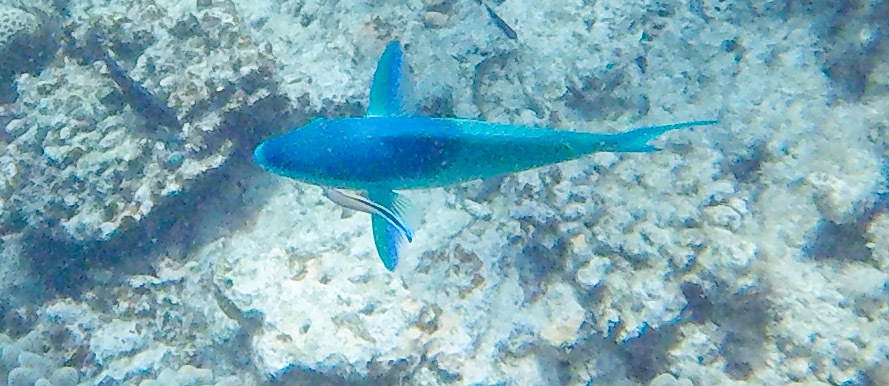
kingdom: Animalia
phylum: Chordata
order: Perciformes
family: Scaridae
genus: Scarus
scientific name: Scarus dimidiatus
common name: Yellowbarred parrotfish
